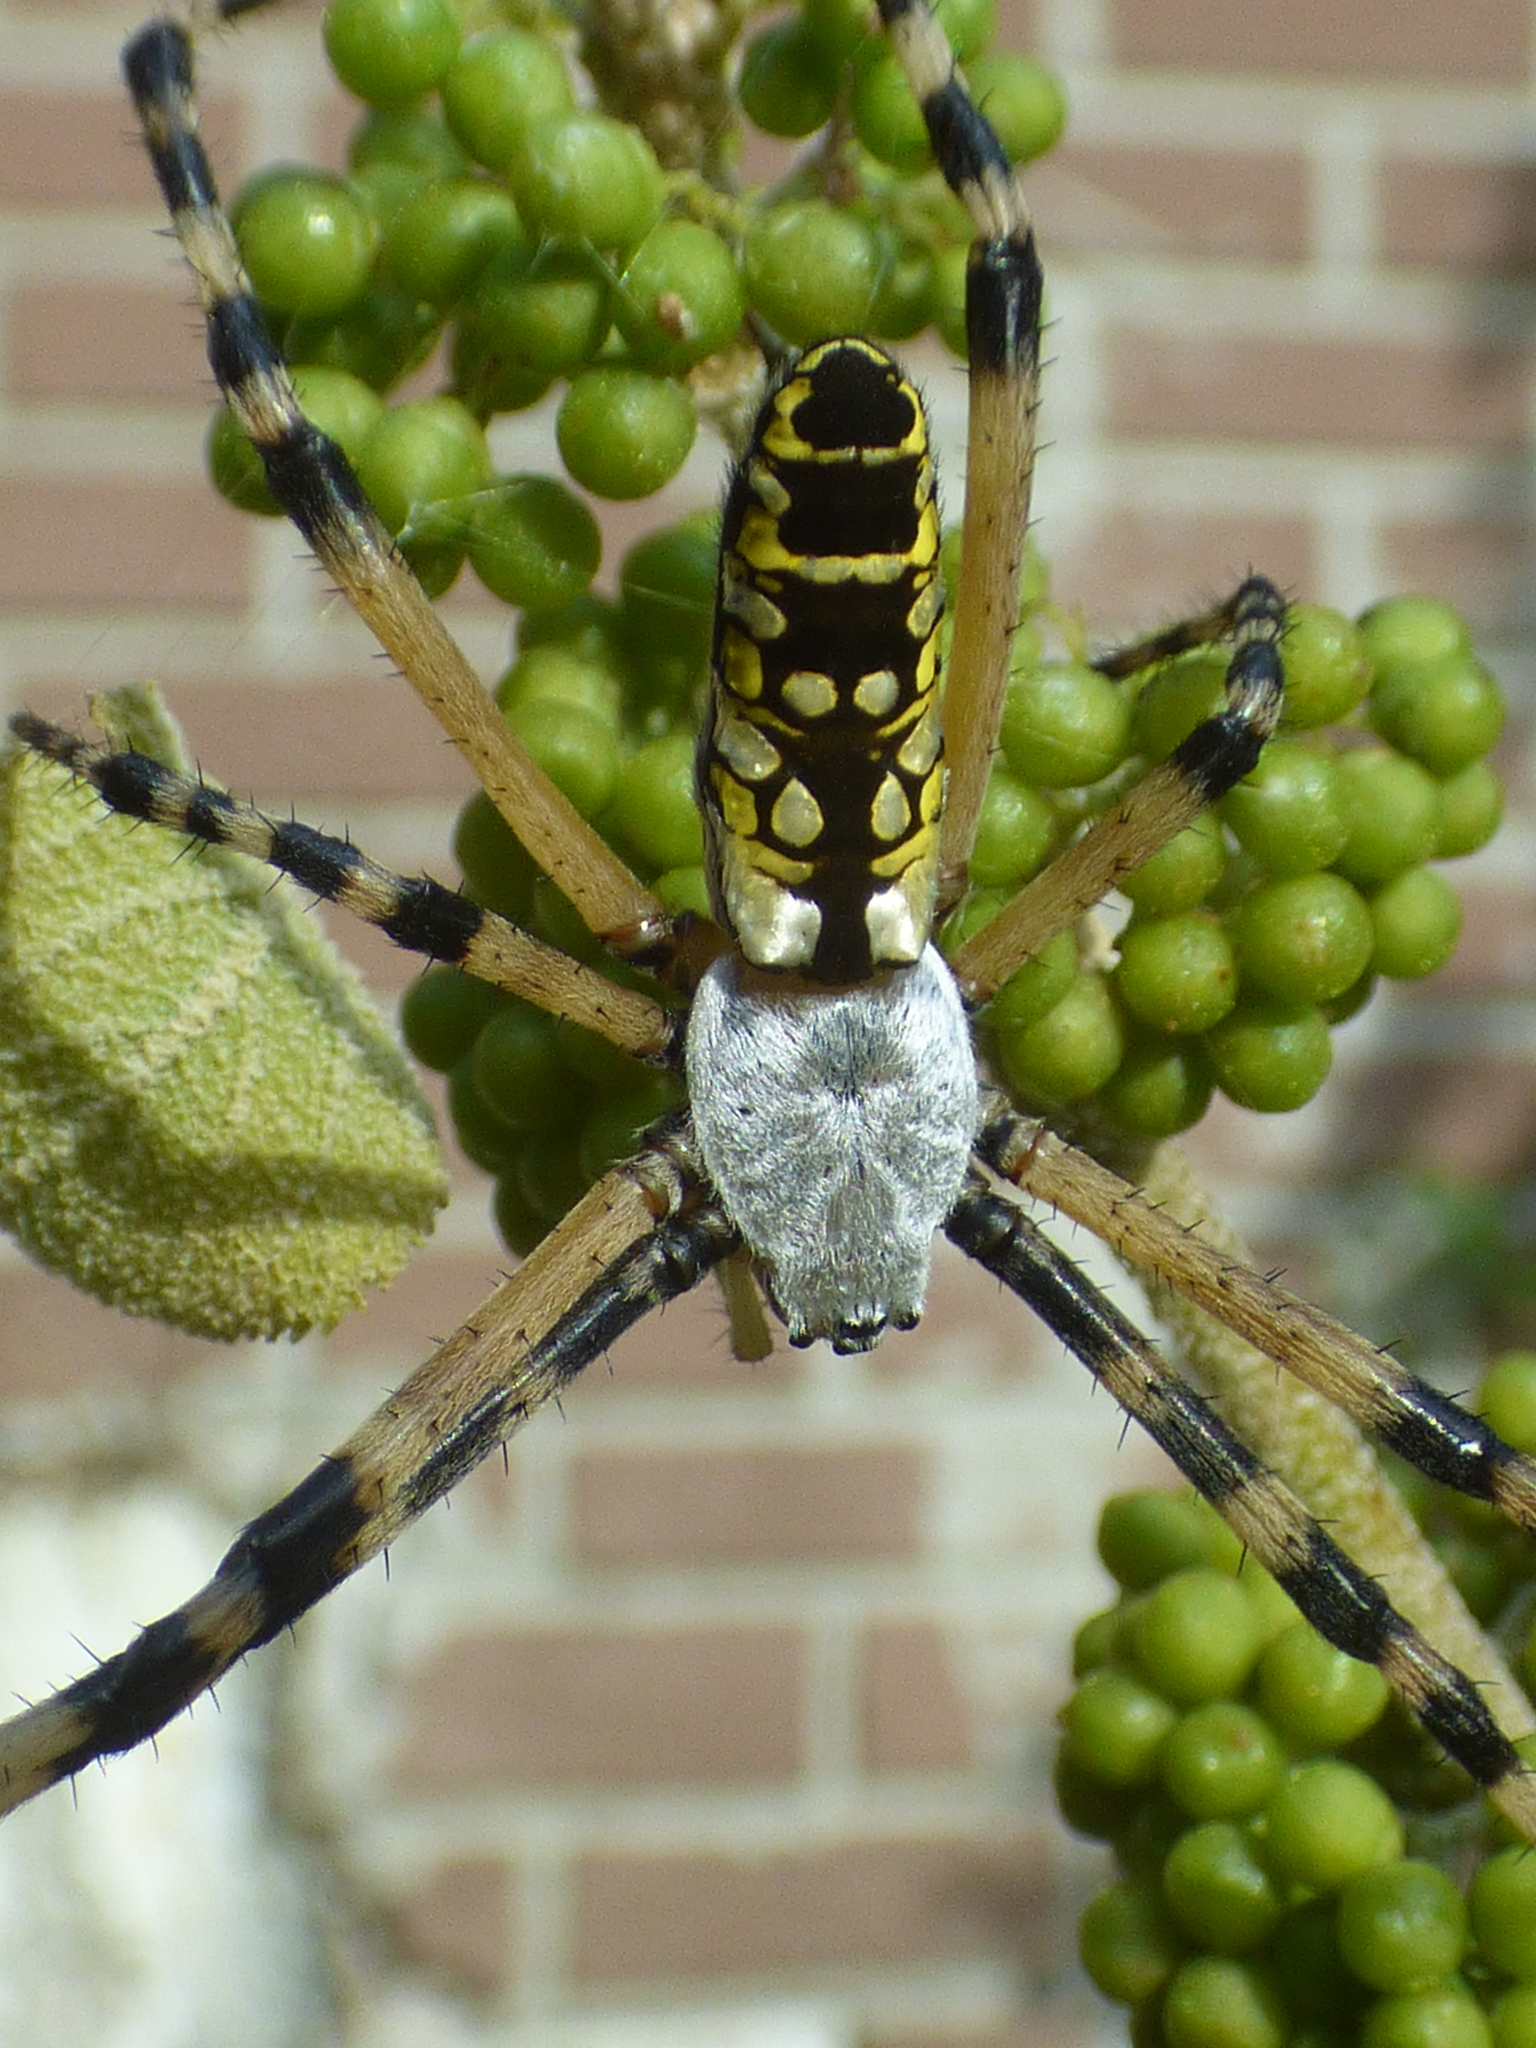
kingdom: Animalia
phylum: Arthropoda
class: Arachnida
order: Araneae
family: Araneidae
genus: Argiope
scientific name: Argiope aurantia
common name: Orb weavers
